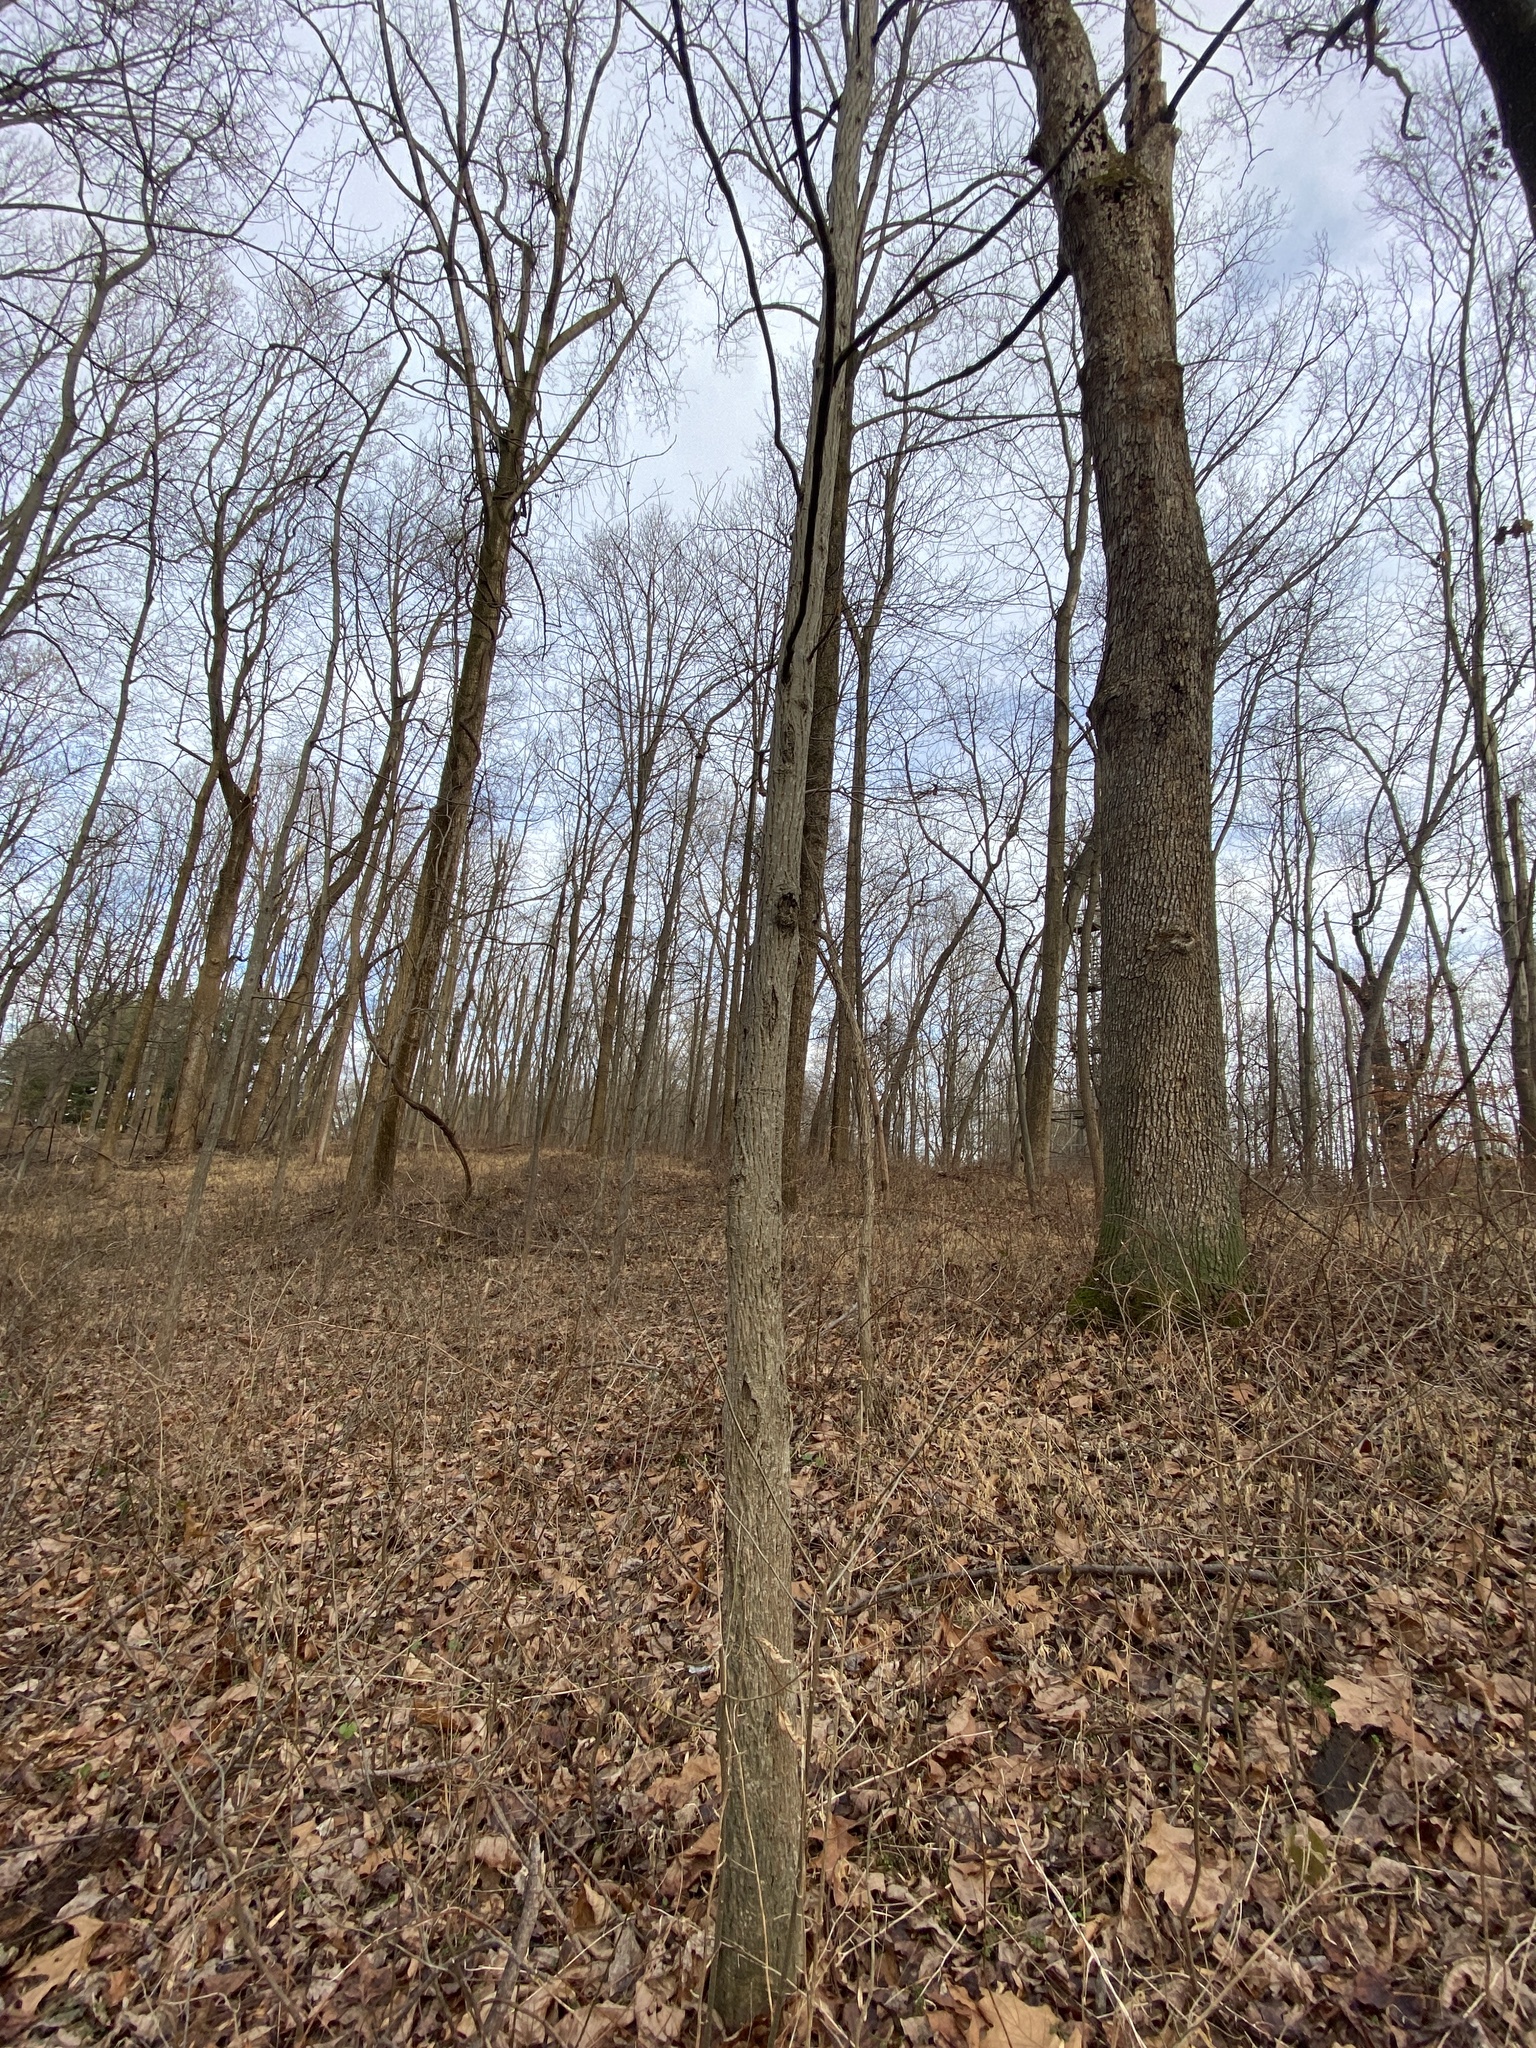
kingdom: Plantae
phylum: Tracheophyta
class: Magnoliopsida
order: Fagales
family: Juglandaceae
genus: Carya
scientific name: Carya alba
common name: Mockernut hickory
